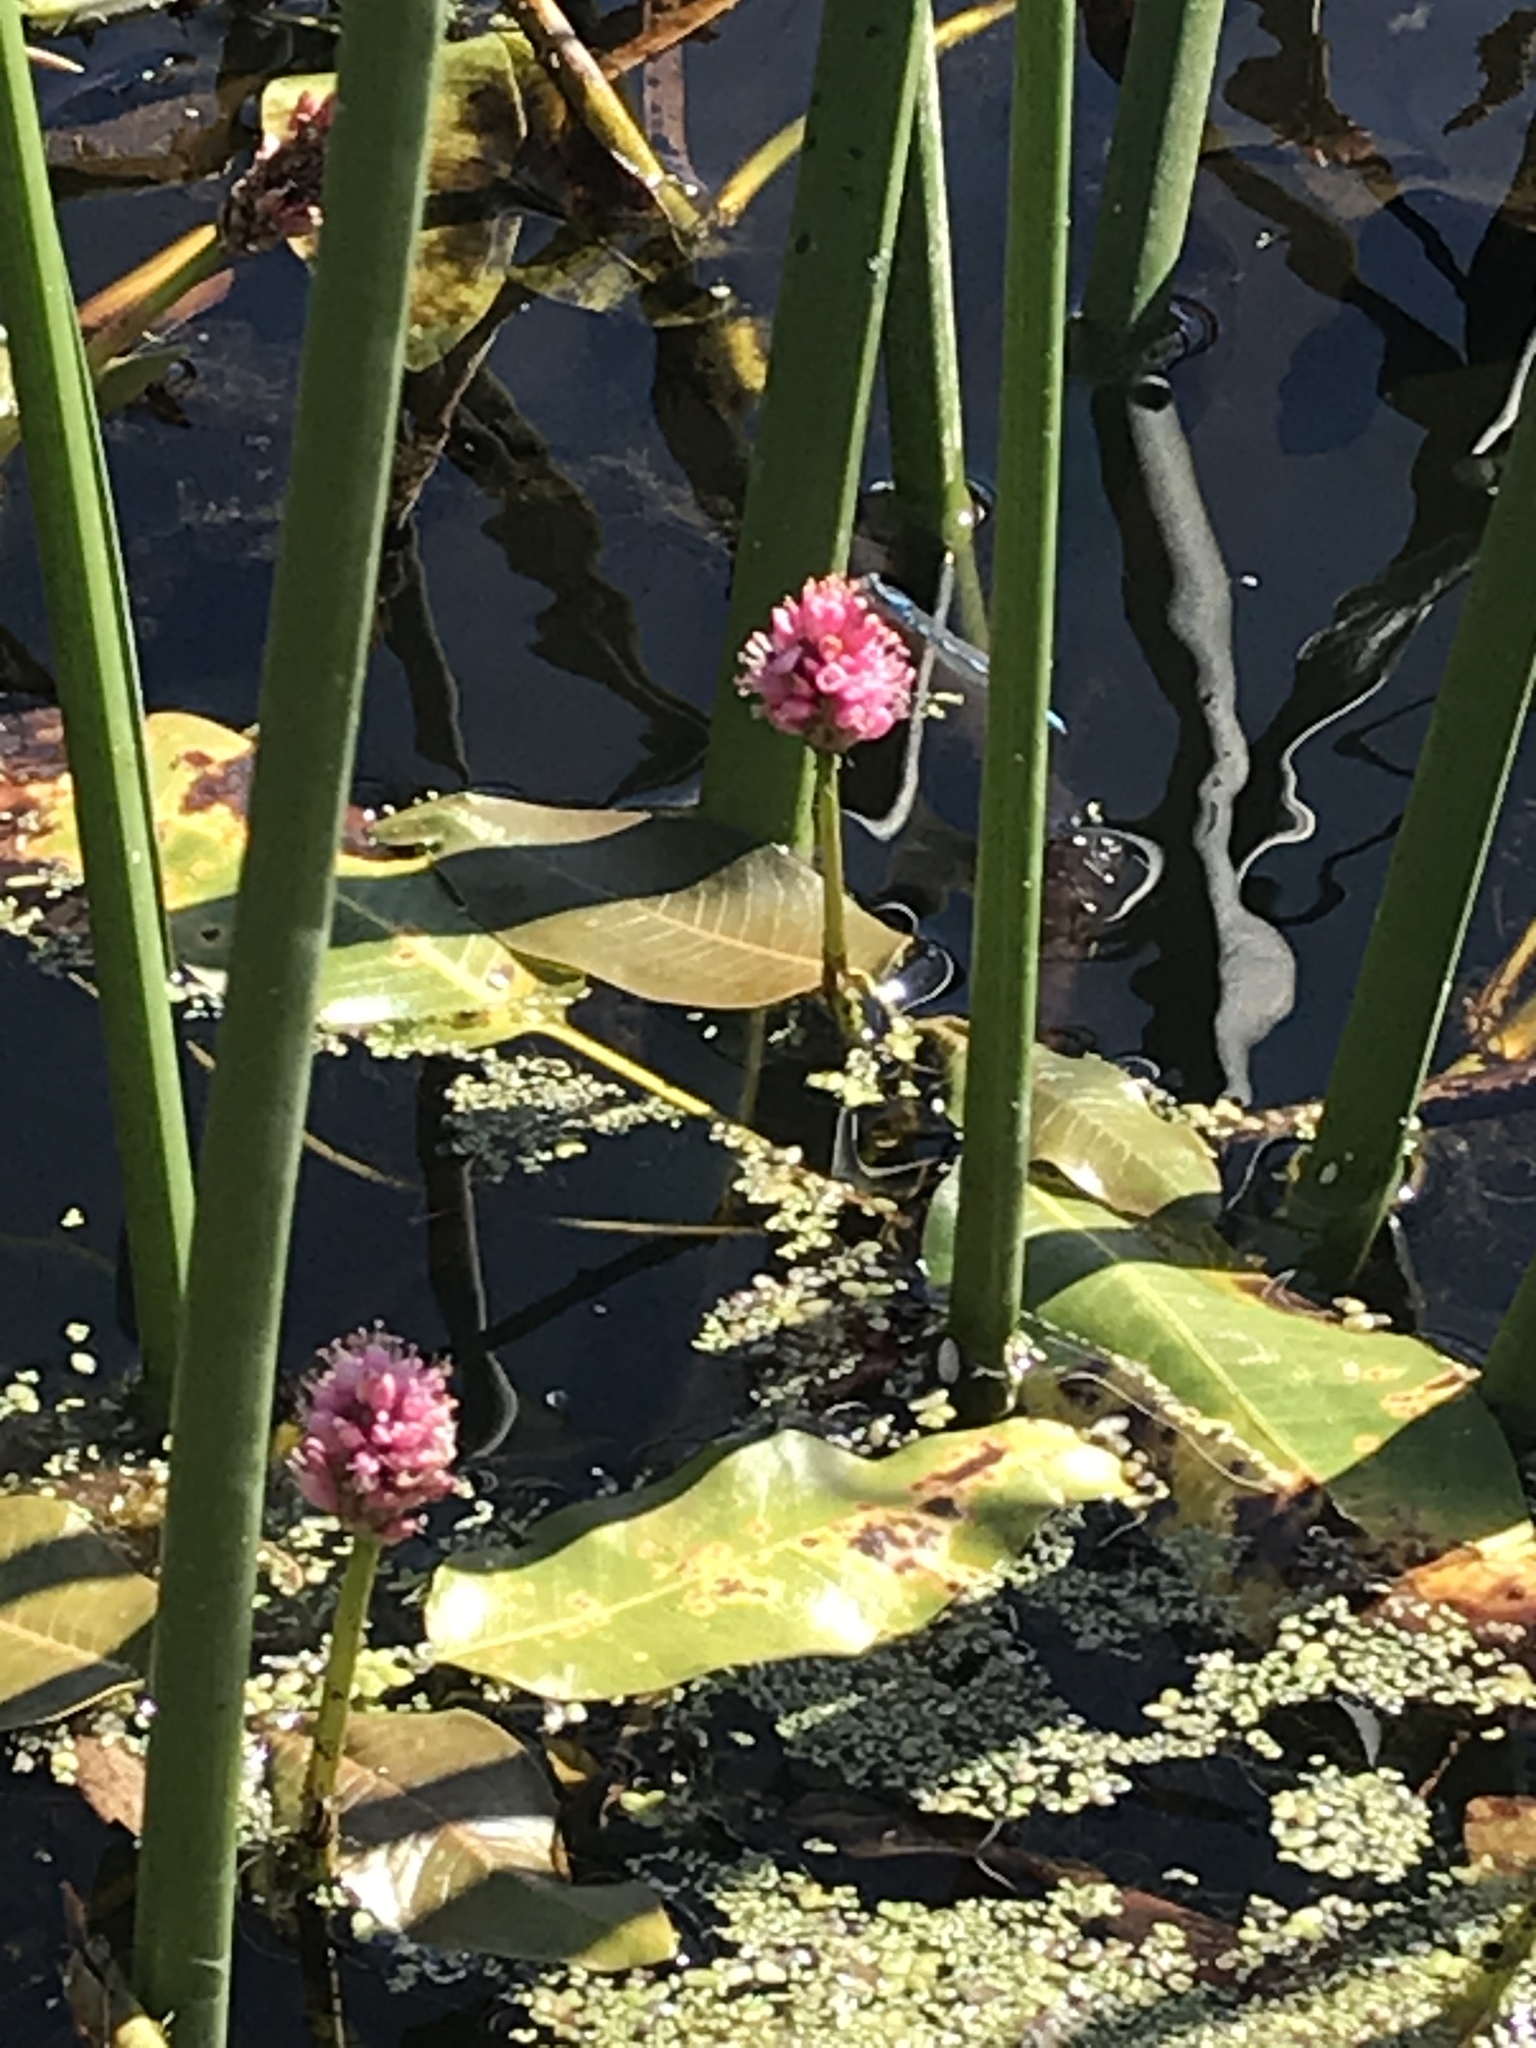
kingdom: Plantae
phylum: Tracheophyta
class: Magnoliopsida
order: Caryophyllales
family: Polygonaceae
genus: Persicaria
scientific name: Persicaria amphibia
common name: Amphibious bistort
